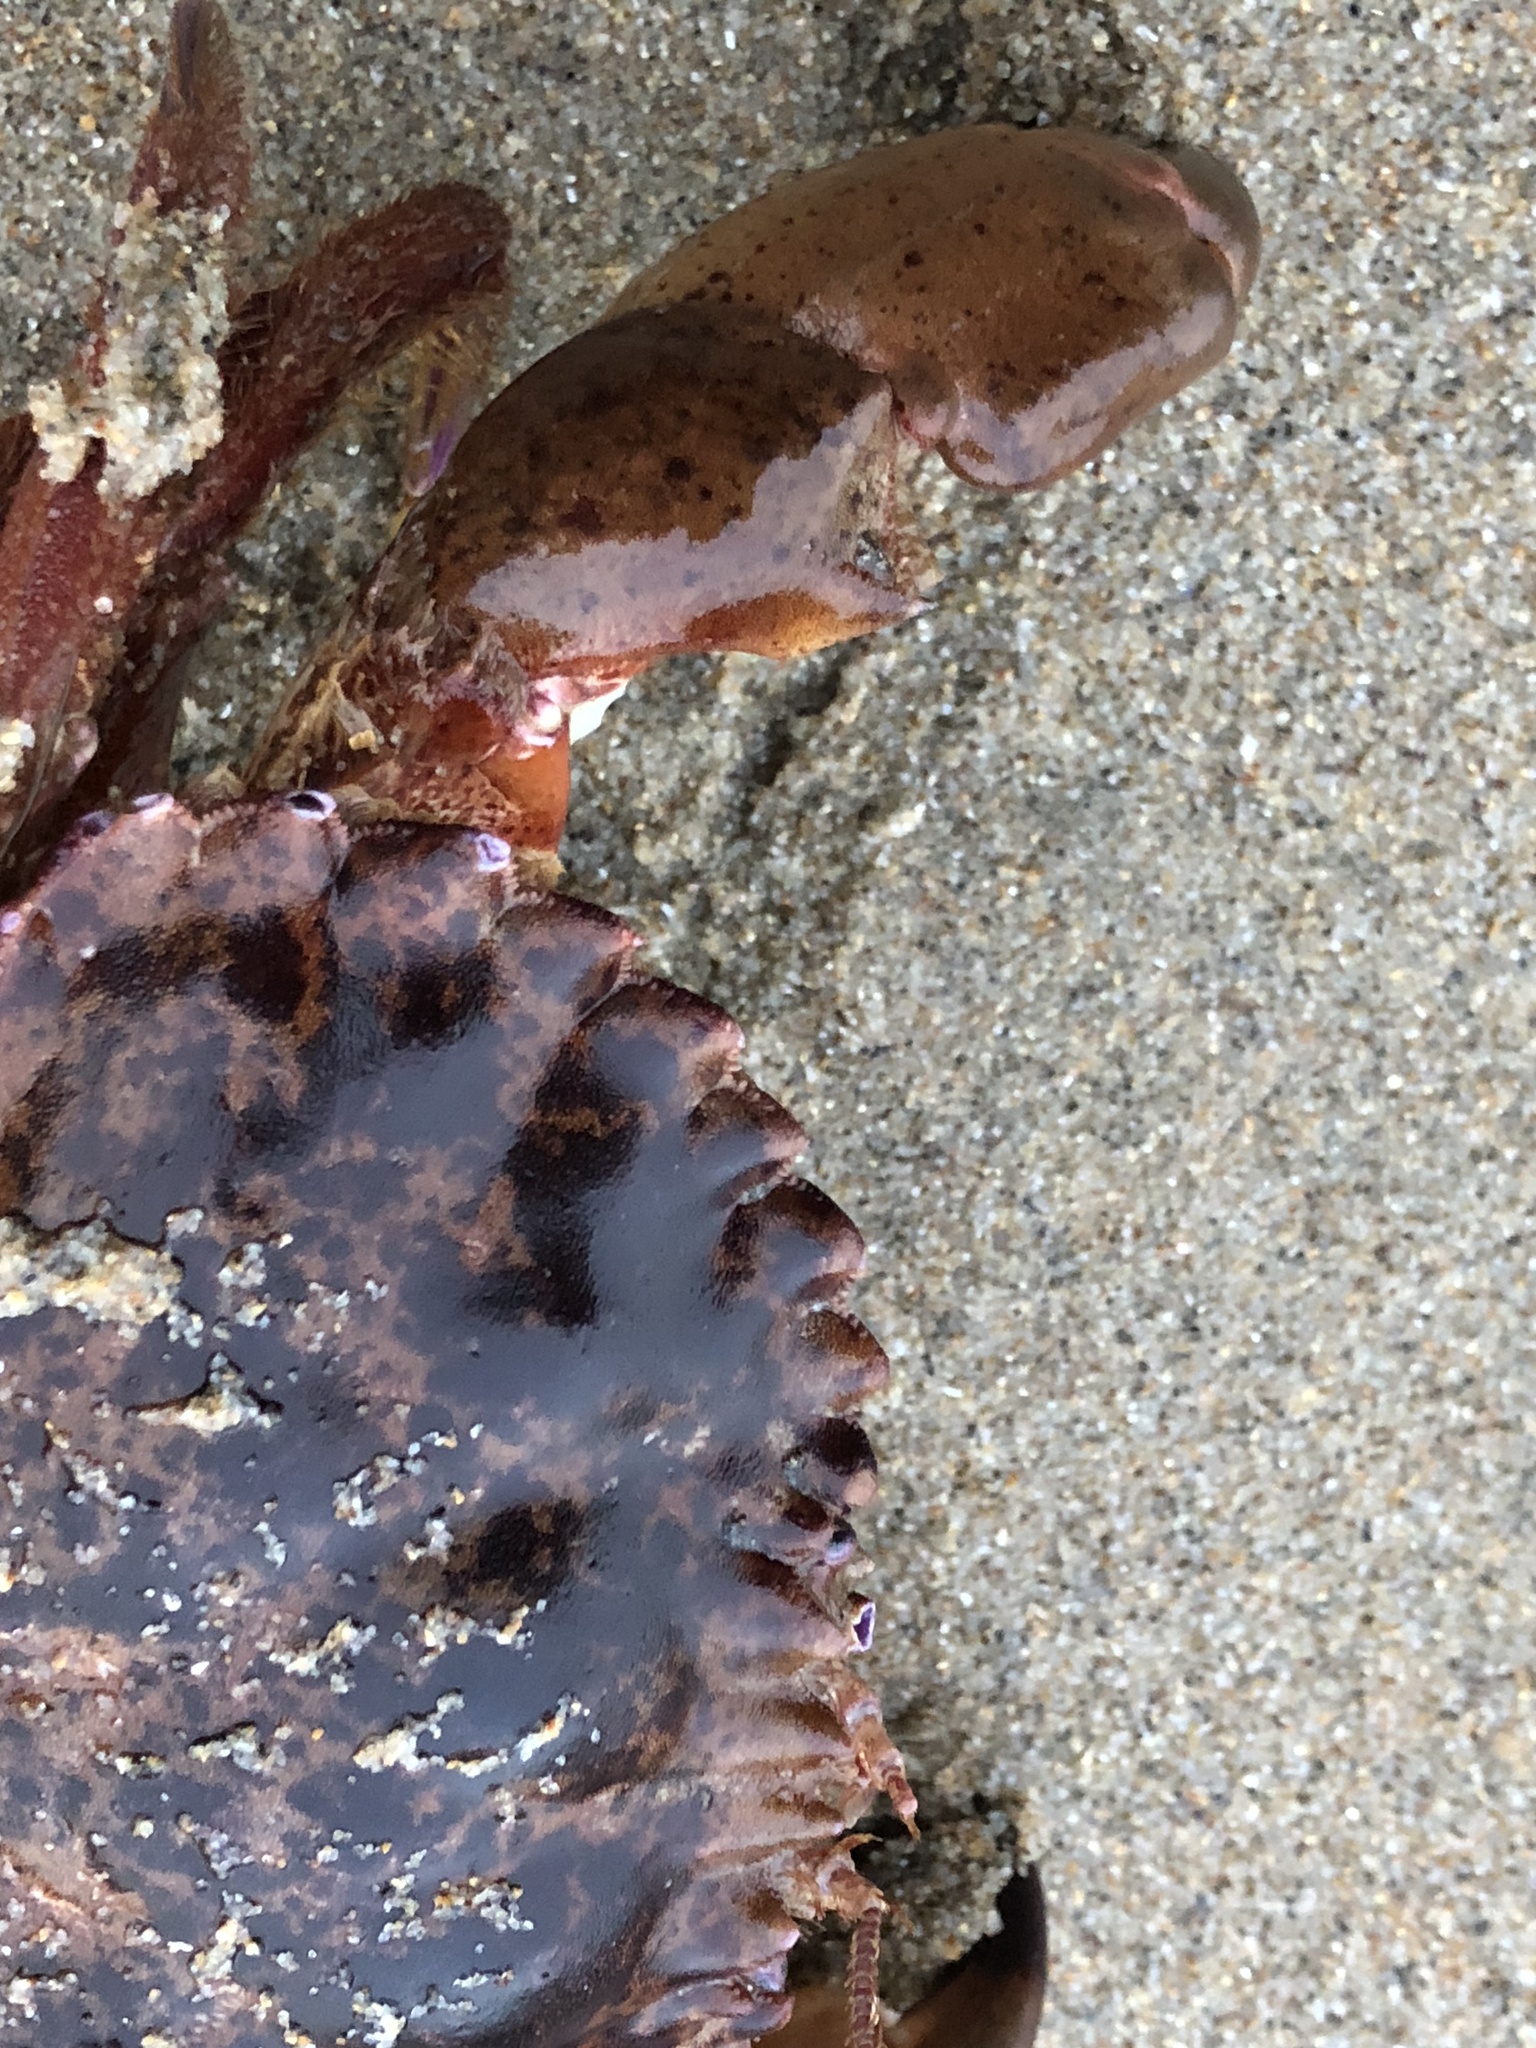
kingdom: Animalia
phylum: Arthropoda
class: Malacostraca
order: Decapoda
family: Cancridae
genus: Romaleon
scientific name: Romaleon antennarium
